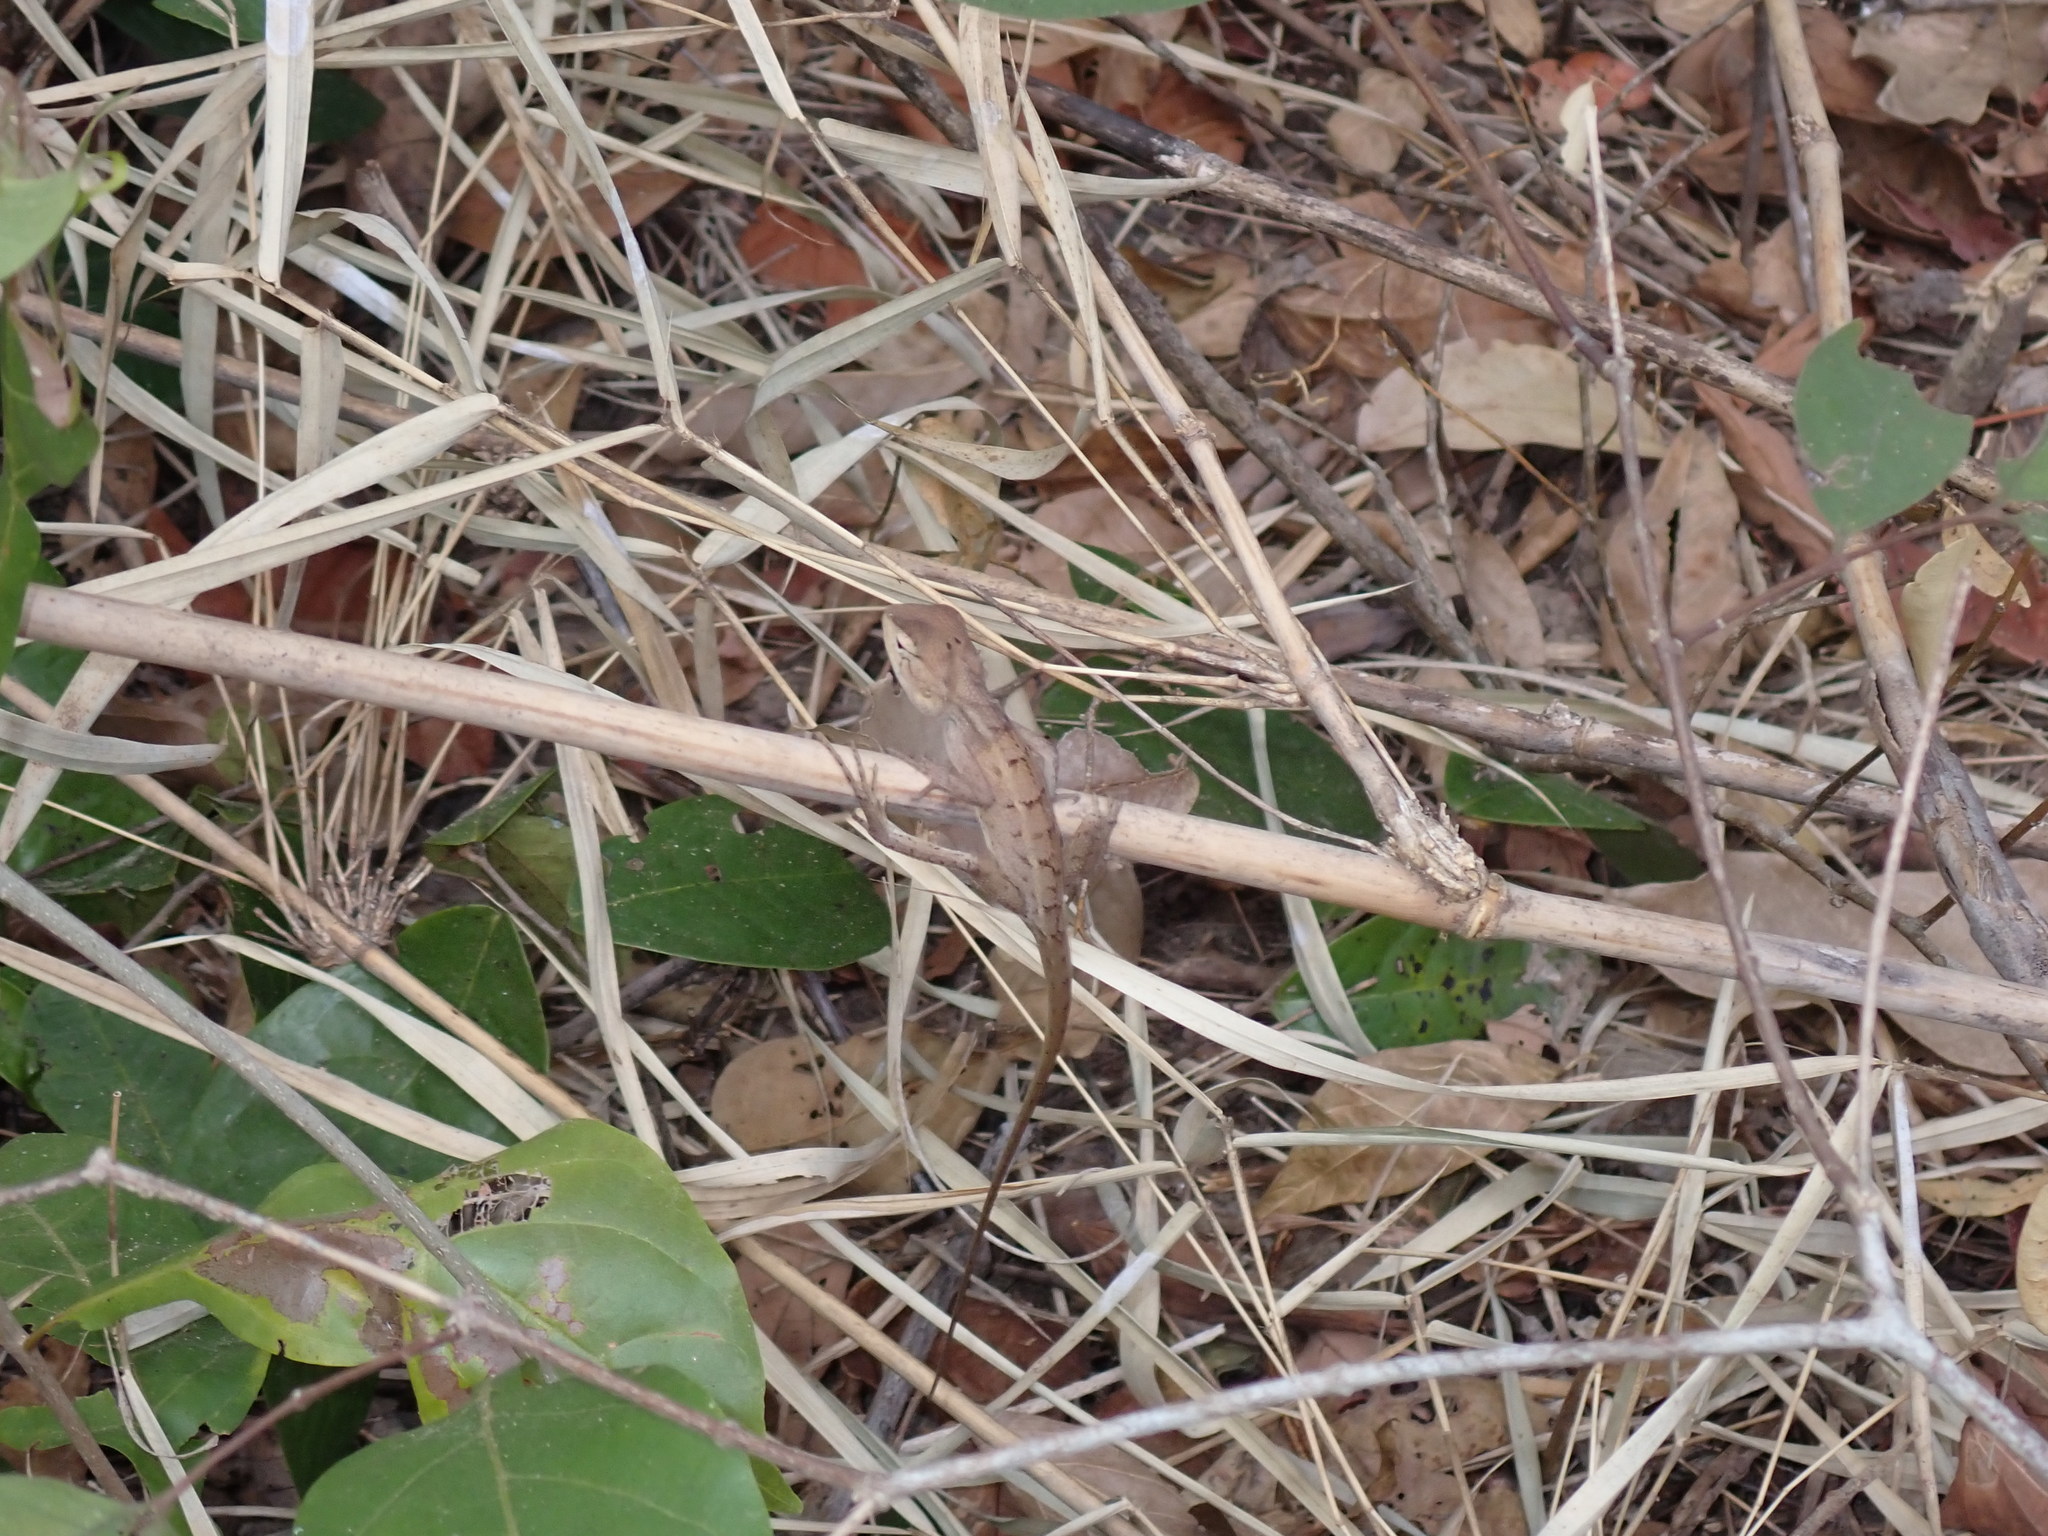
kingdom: Animalia
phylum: Chordata
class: Squamata
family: Agamidae
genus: Calotes
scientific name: Calotes versicolor
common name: Oriental garden lizard
